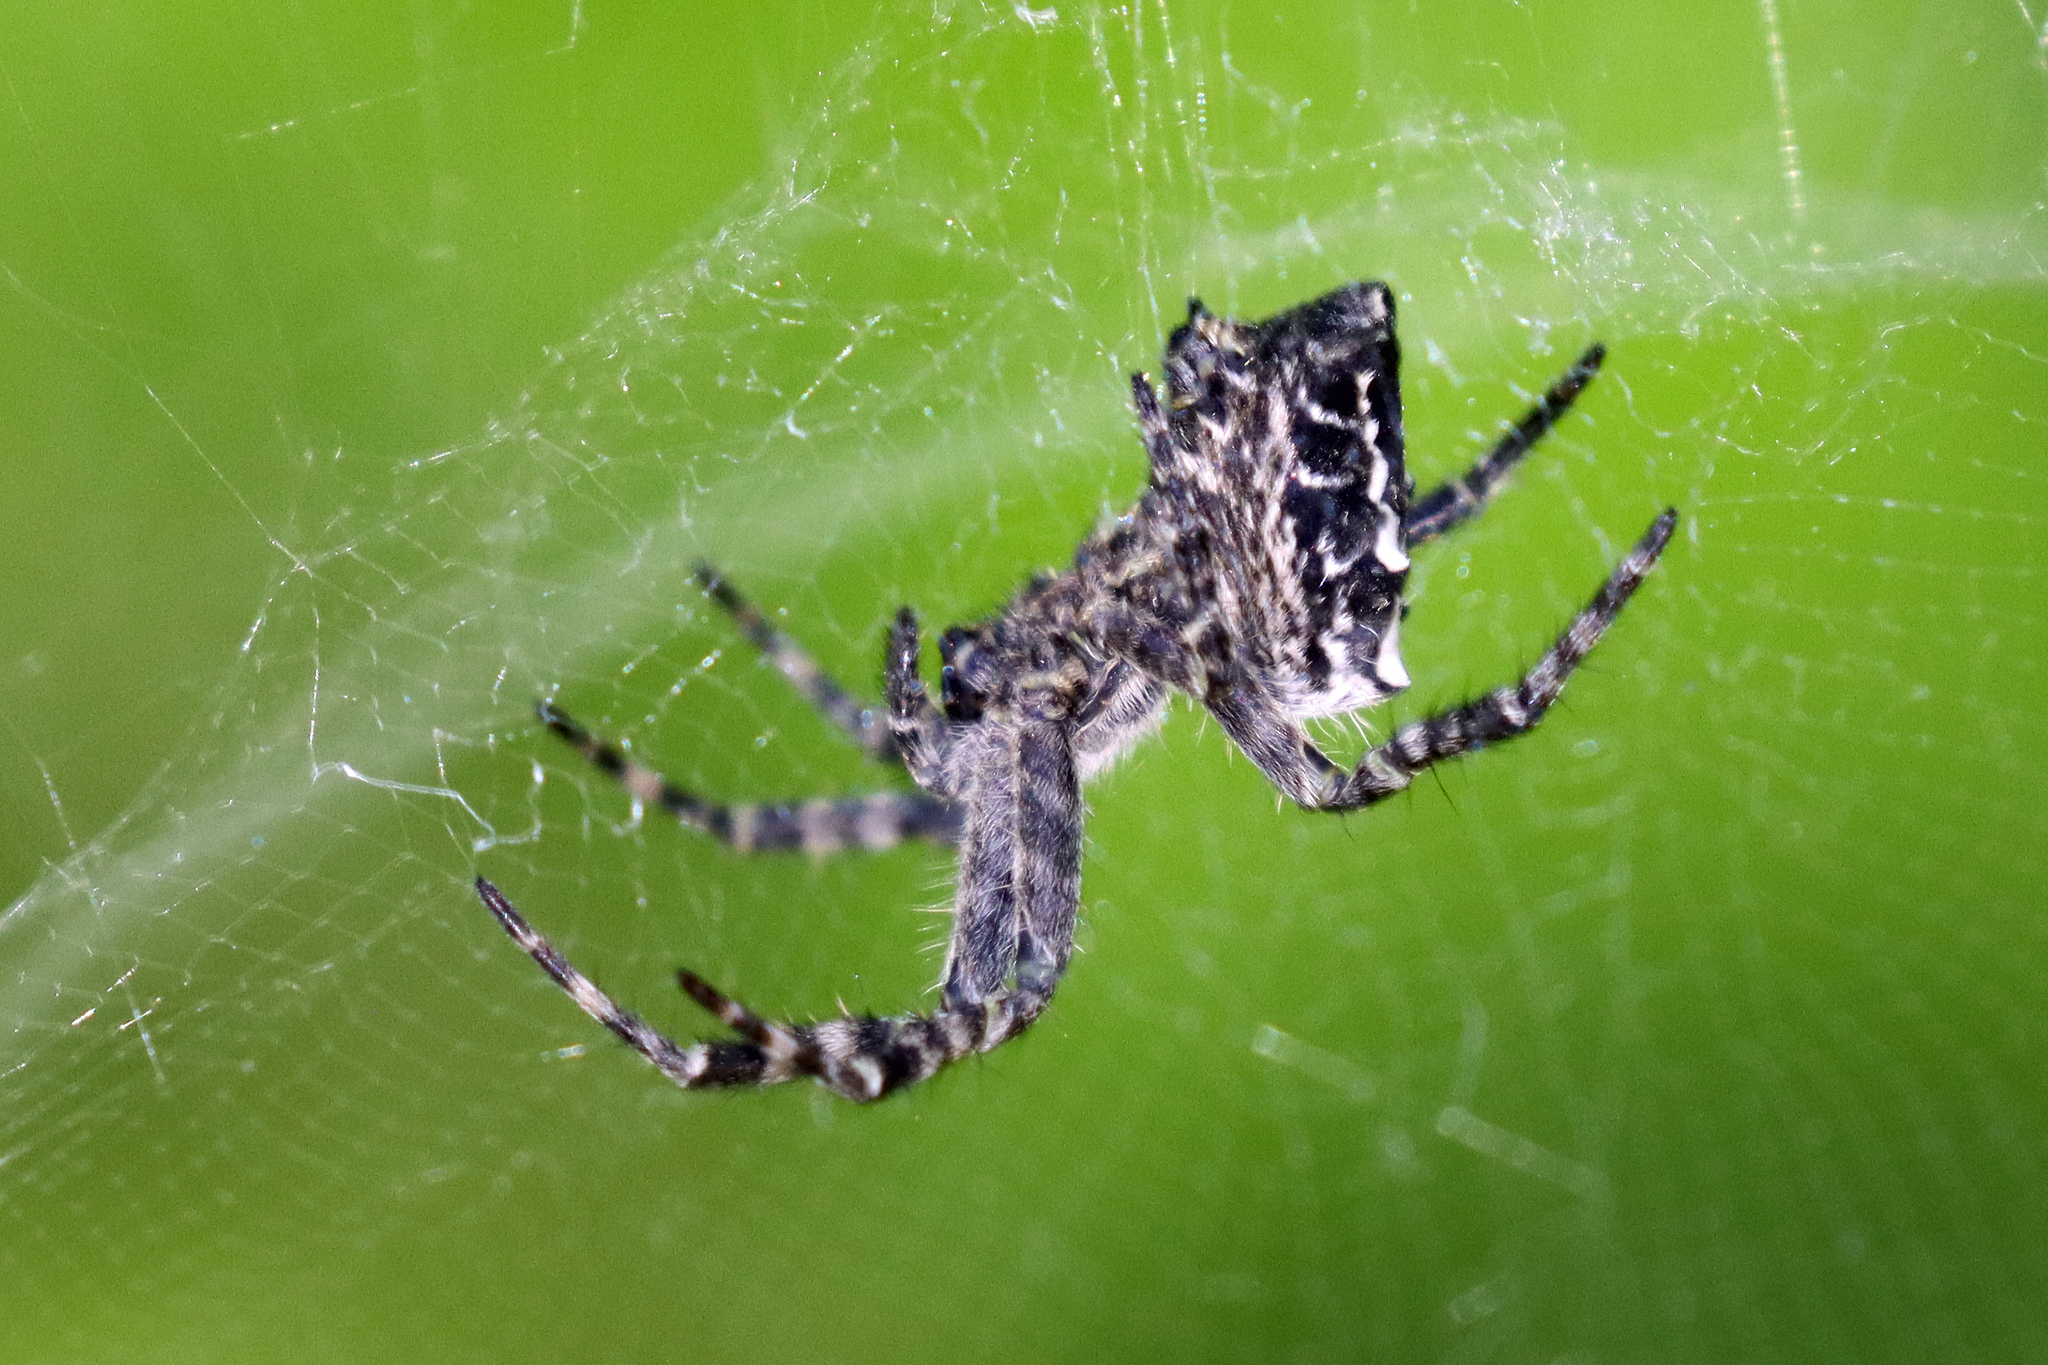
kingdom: Animalia
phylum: Arthropoda
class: Arachnida
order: Araneae
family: Araneidae
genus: Cyrtophora
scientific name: Cyrtophora citricola
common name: Orb weavers
